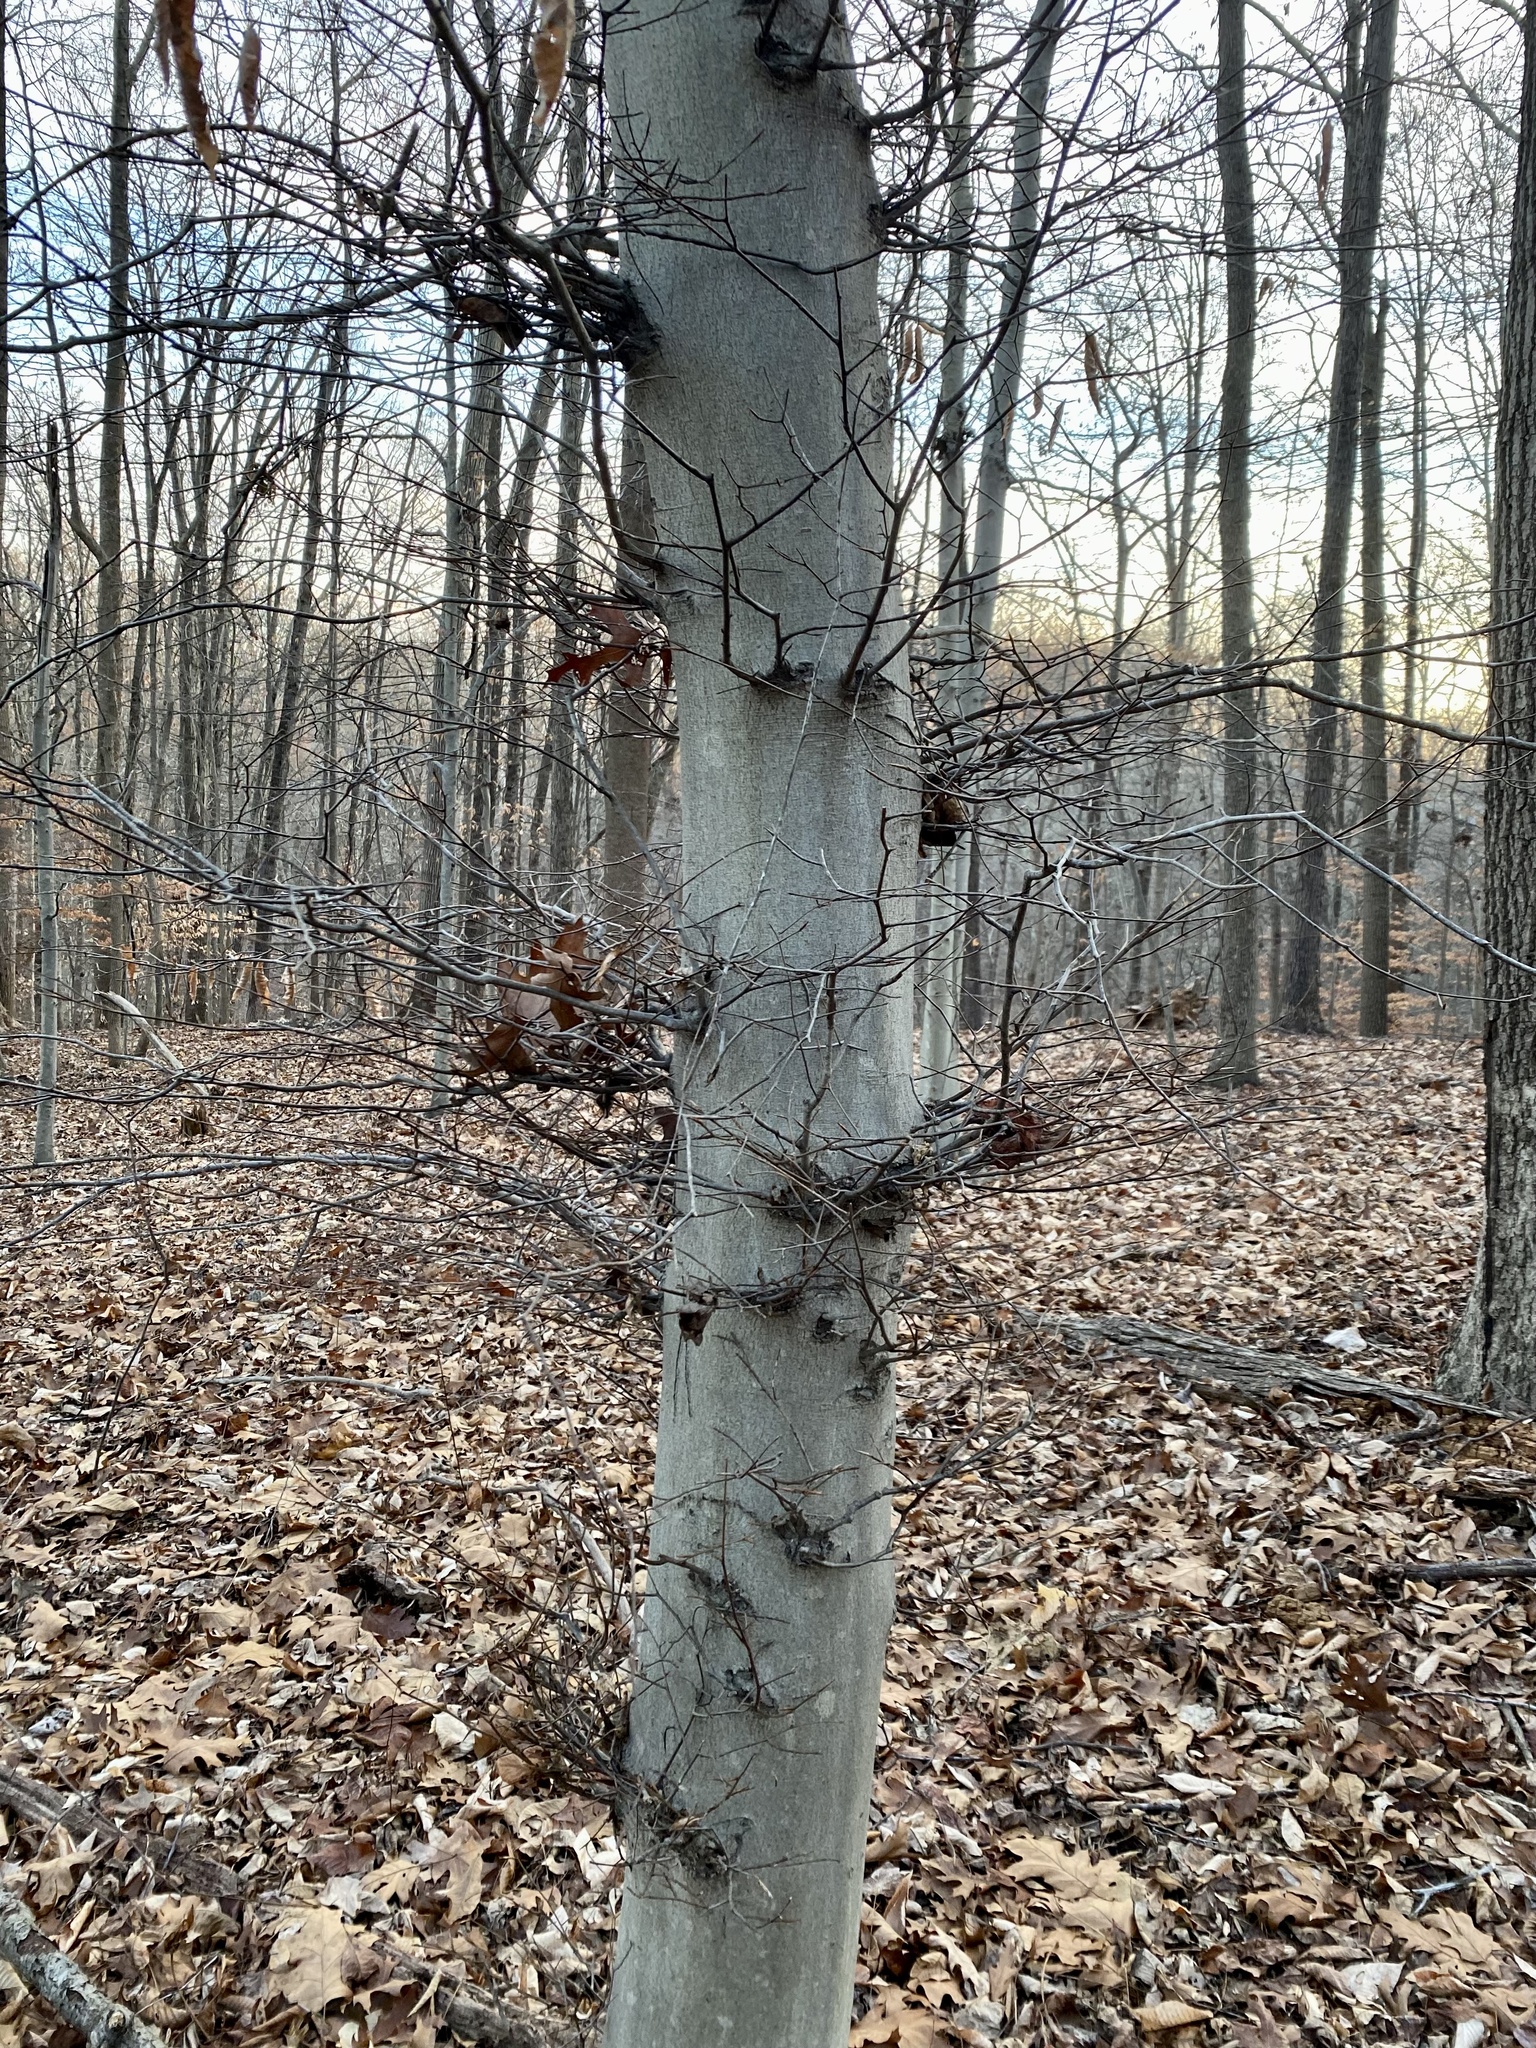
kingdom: Plantae
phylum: Tracheophyta
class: Magnoliopsida
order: Fagales
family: Fagaceae
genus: Fagus
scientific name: Fagus grandifolia
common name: American beech
